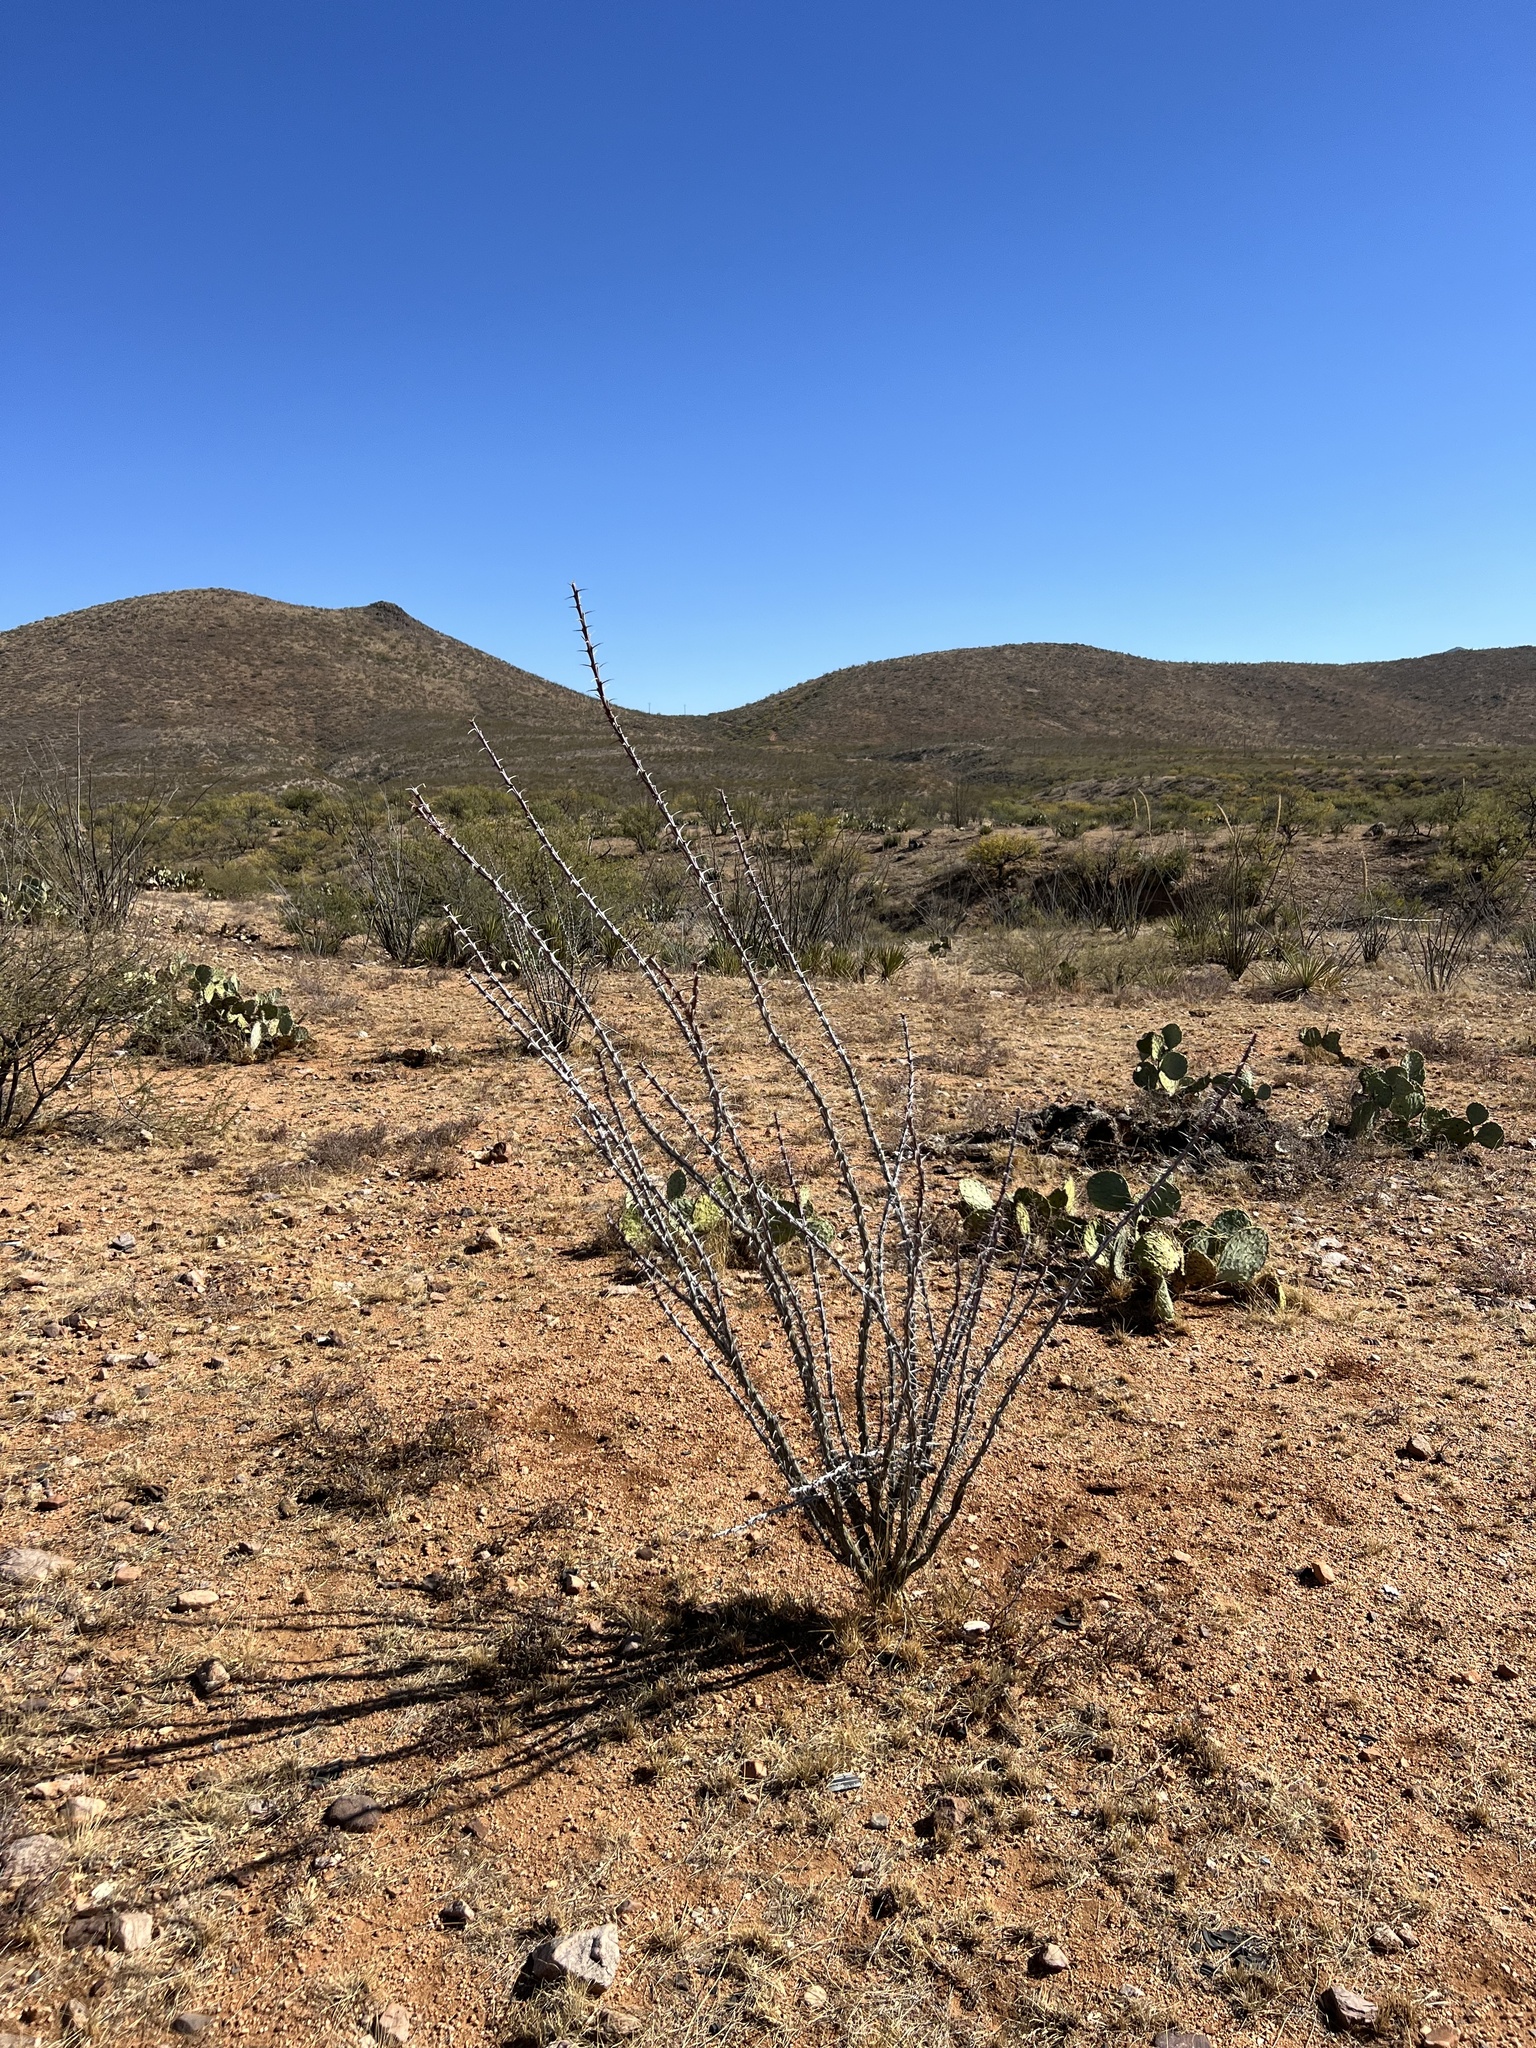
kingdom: Plantae
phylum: Tracheophyta
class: Magnoliopsida
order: Ericales
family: Fouquieriaceae
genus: Fouquieria
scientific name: Fouquieria splendens
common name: Vine-cactus
